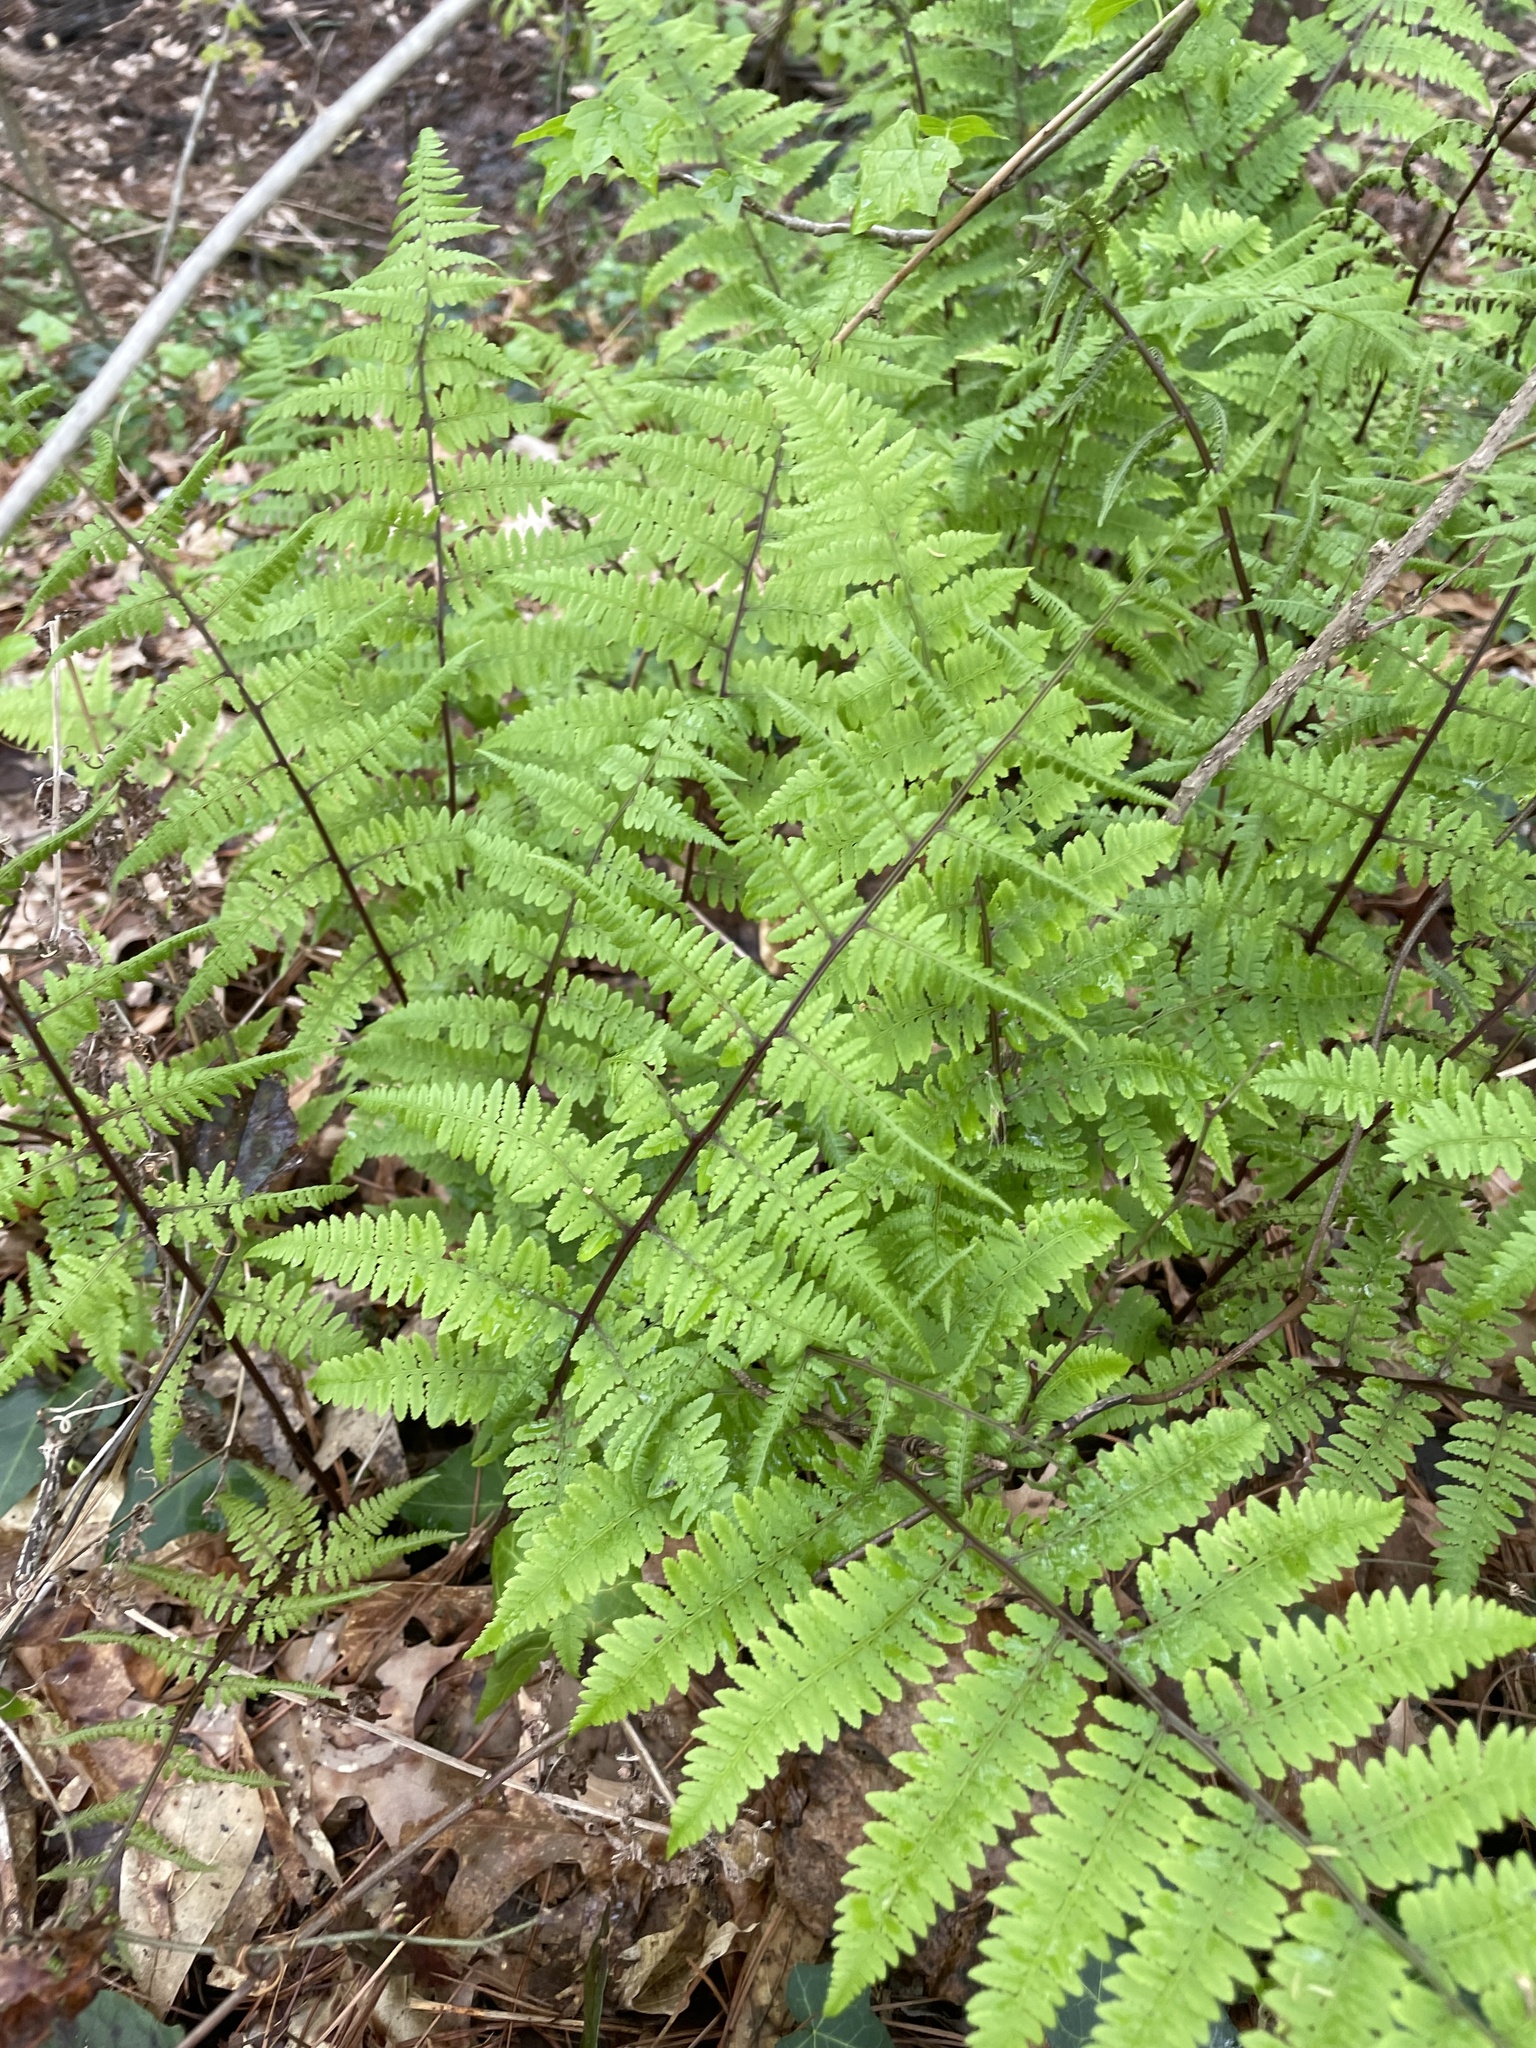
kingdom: Plantae
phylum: Tracheophyta
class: Polypodiopsida
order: Polypodiales
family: Athyriaceae
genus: Athyrium
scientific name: Athyrium asplenioides
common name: Southern lady fern
